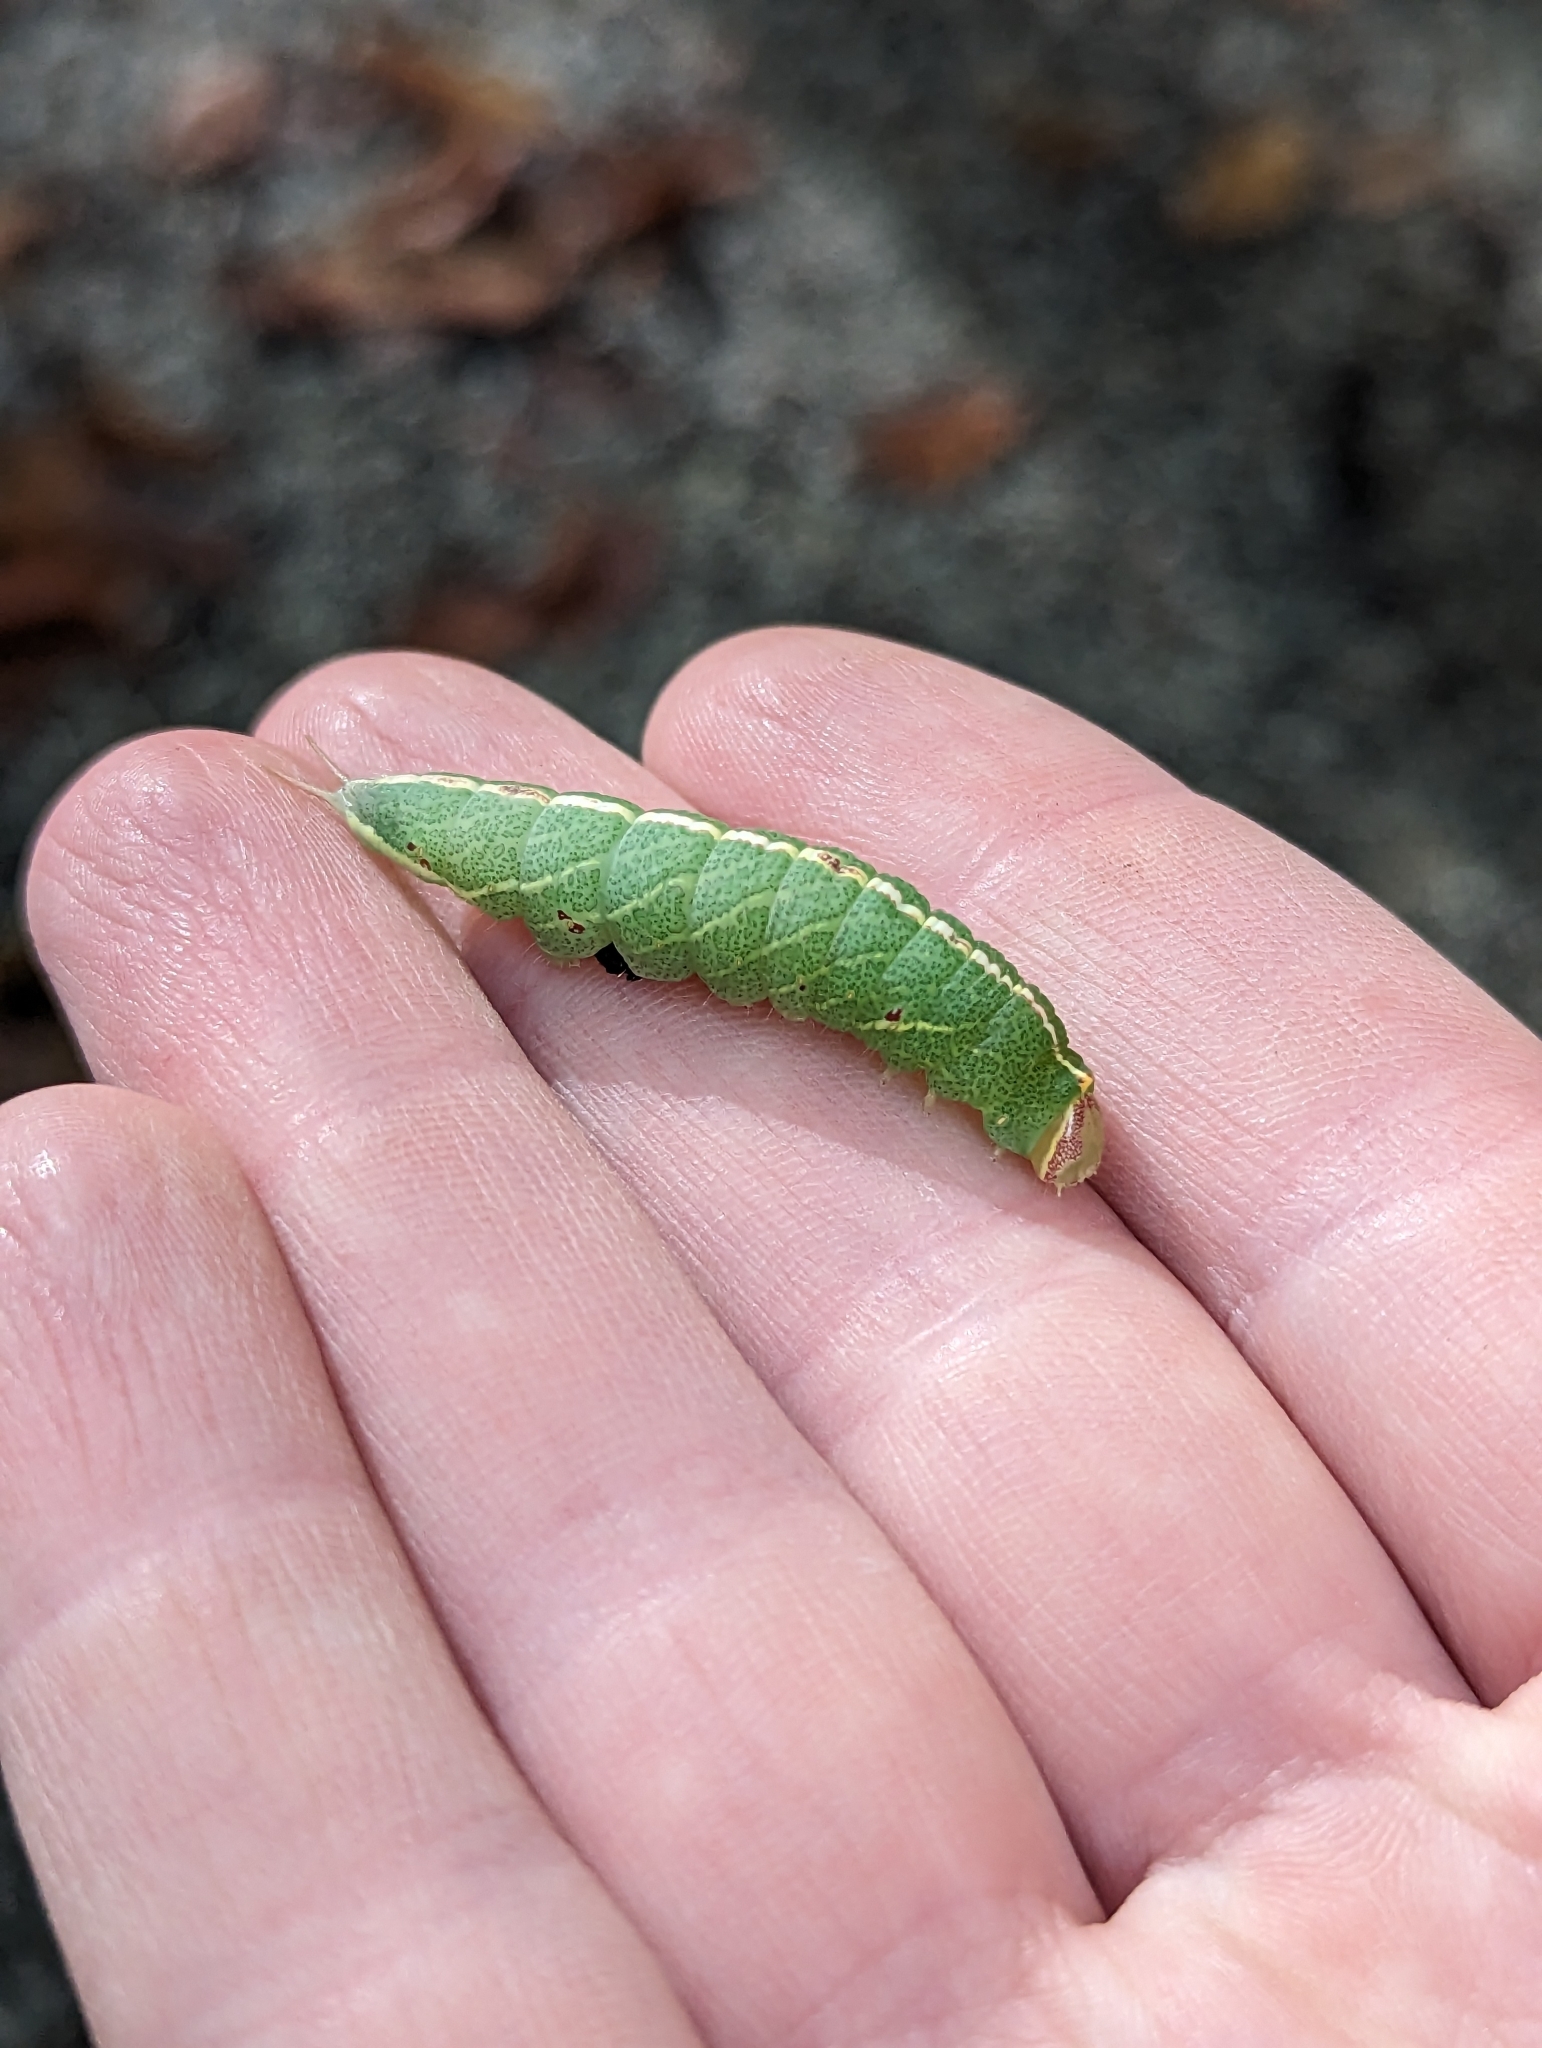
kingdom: Animalia
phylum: Arthropoda
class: Insecta
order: Lepidoptera
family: Notodontidae
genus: Macrurocampa
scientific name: Macrurocampa marthesia
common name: Mottled prominent
